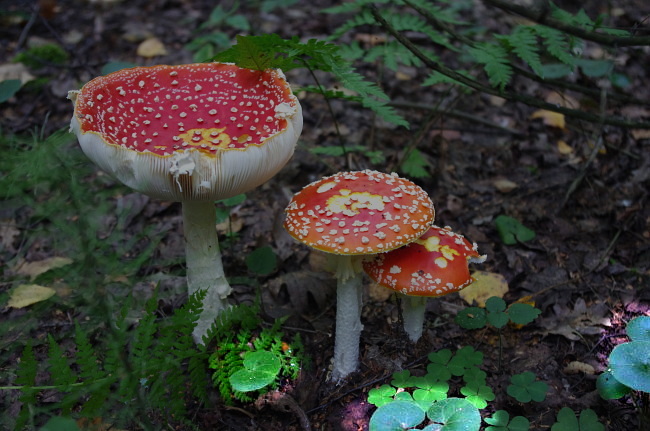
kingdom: Plantae
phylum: Tracheophyta
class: Magnoliopsida
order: Piperales
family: Aristolochiaceae
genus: Asarum
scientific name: Asarum europaeum
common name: Asarabacca
